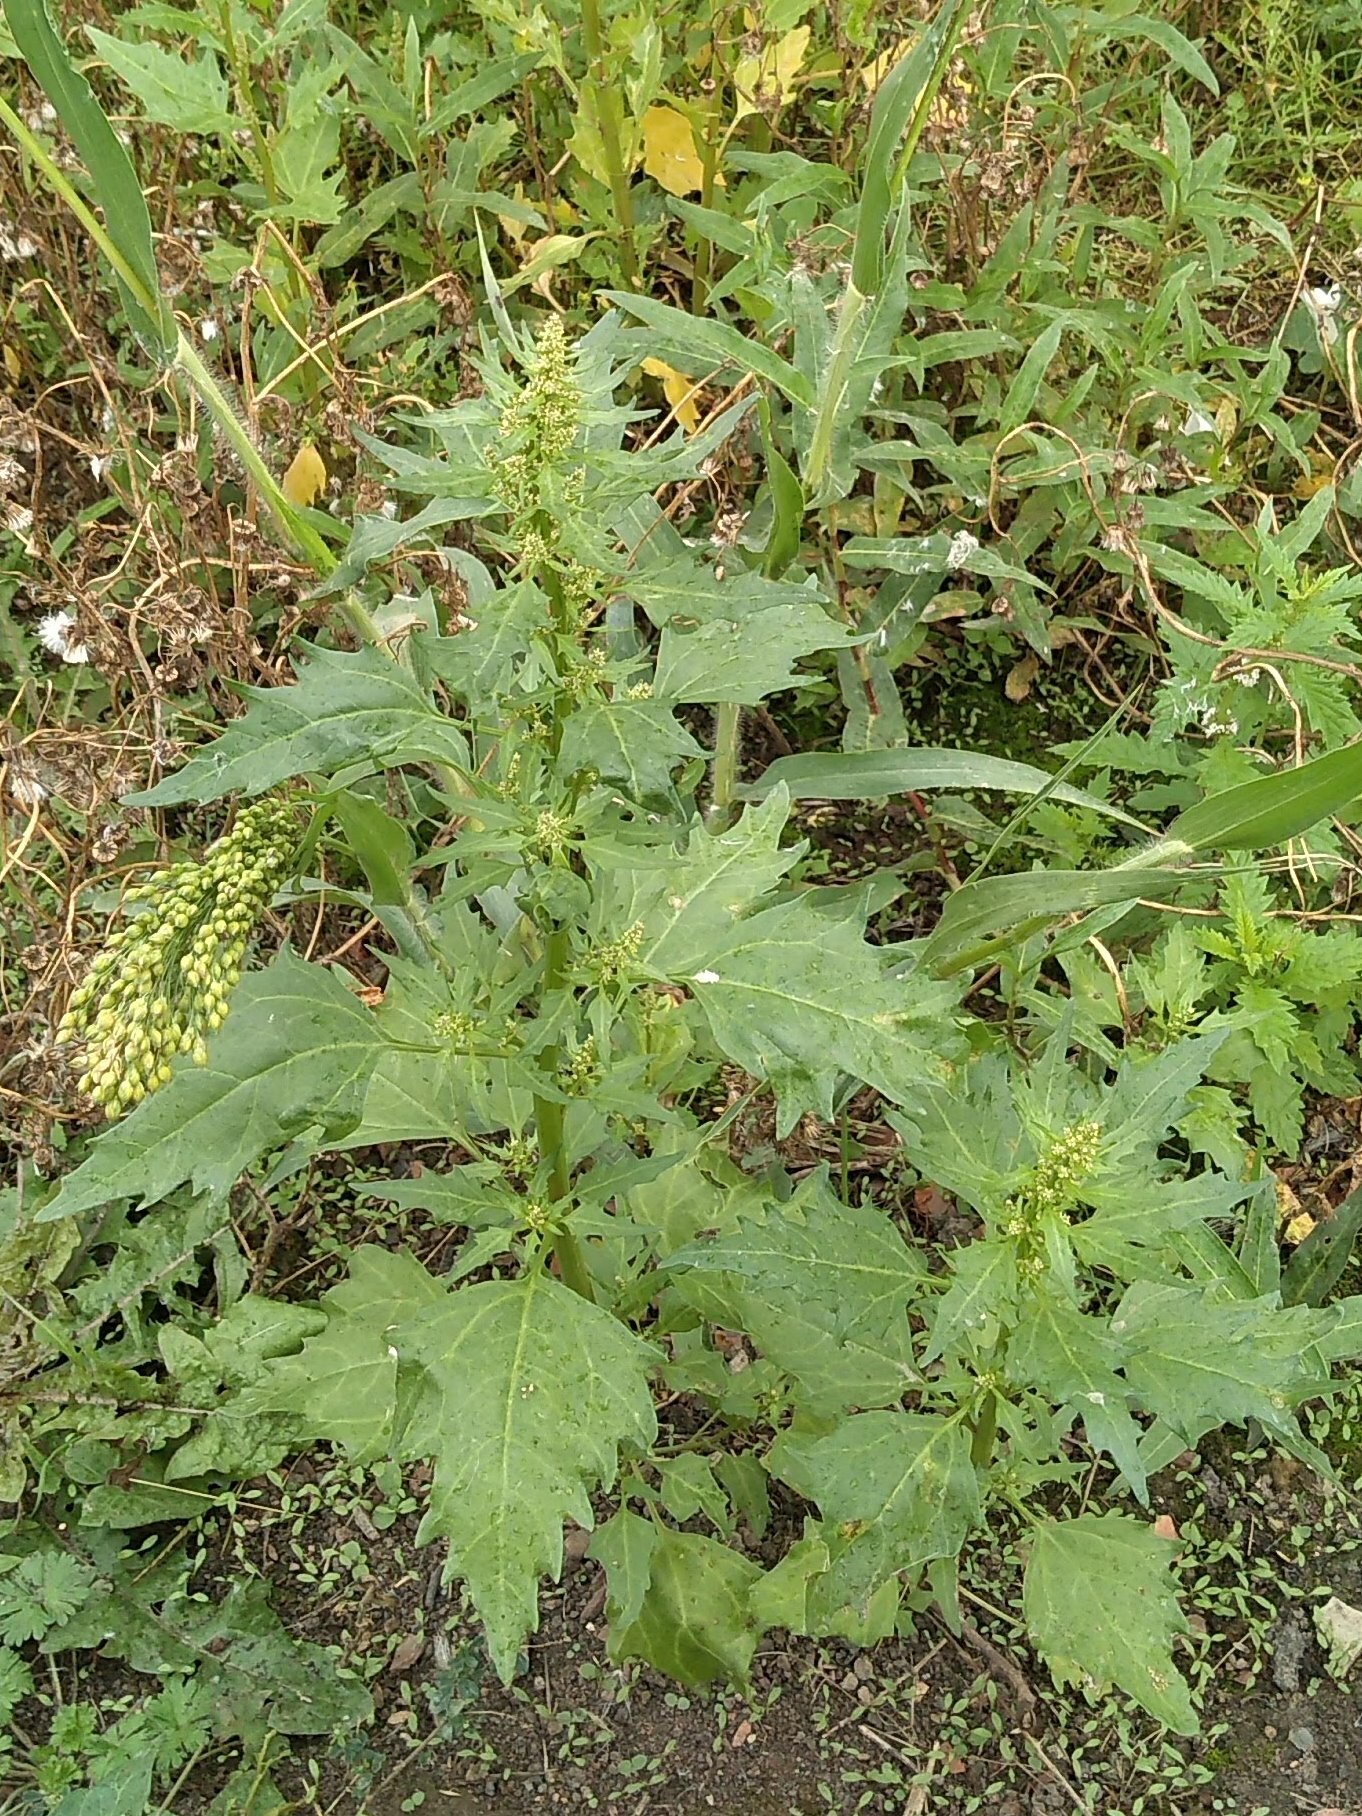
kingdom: Plantae
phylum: Tracheophyta
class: Magnoliopsida
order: Caryophyllales
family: Amaranthaceae
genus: Oxybasis
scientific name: Oxybasis rubra
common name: Red goosefoot
